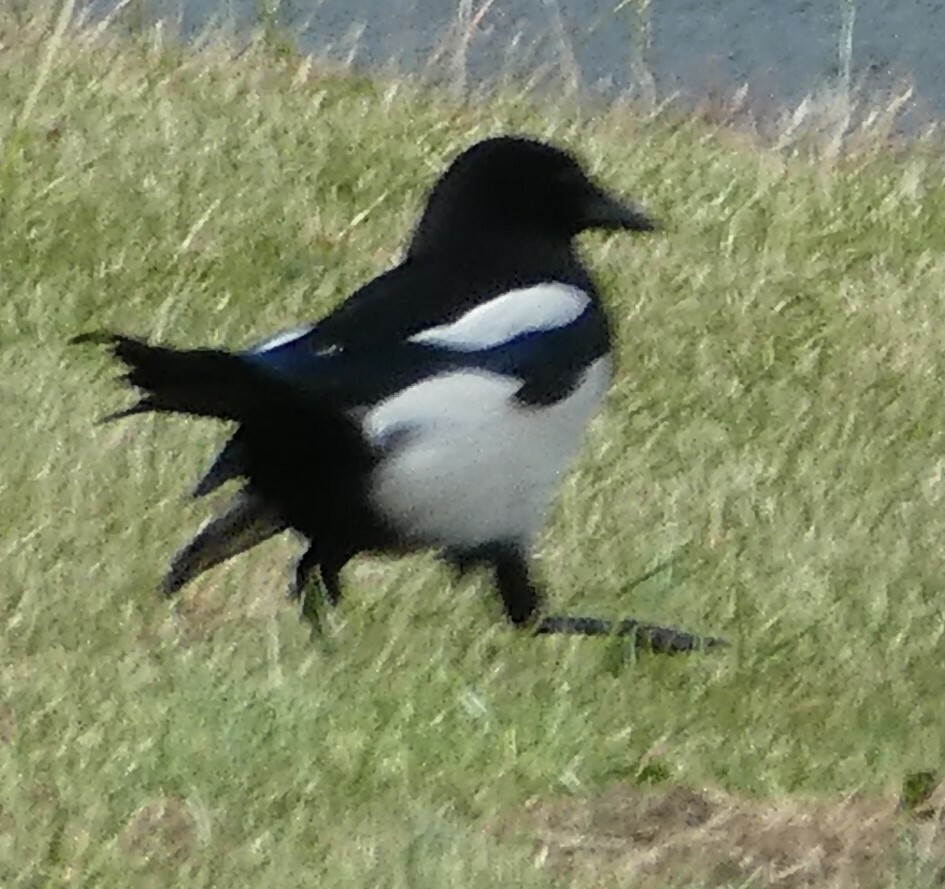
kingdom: Animalia
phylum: Chordata
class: Aves
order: Passeriformes
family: Corvidae
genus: Pica
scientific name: Pica pica
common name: Eurasian magpie
